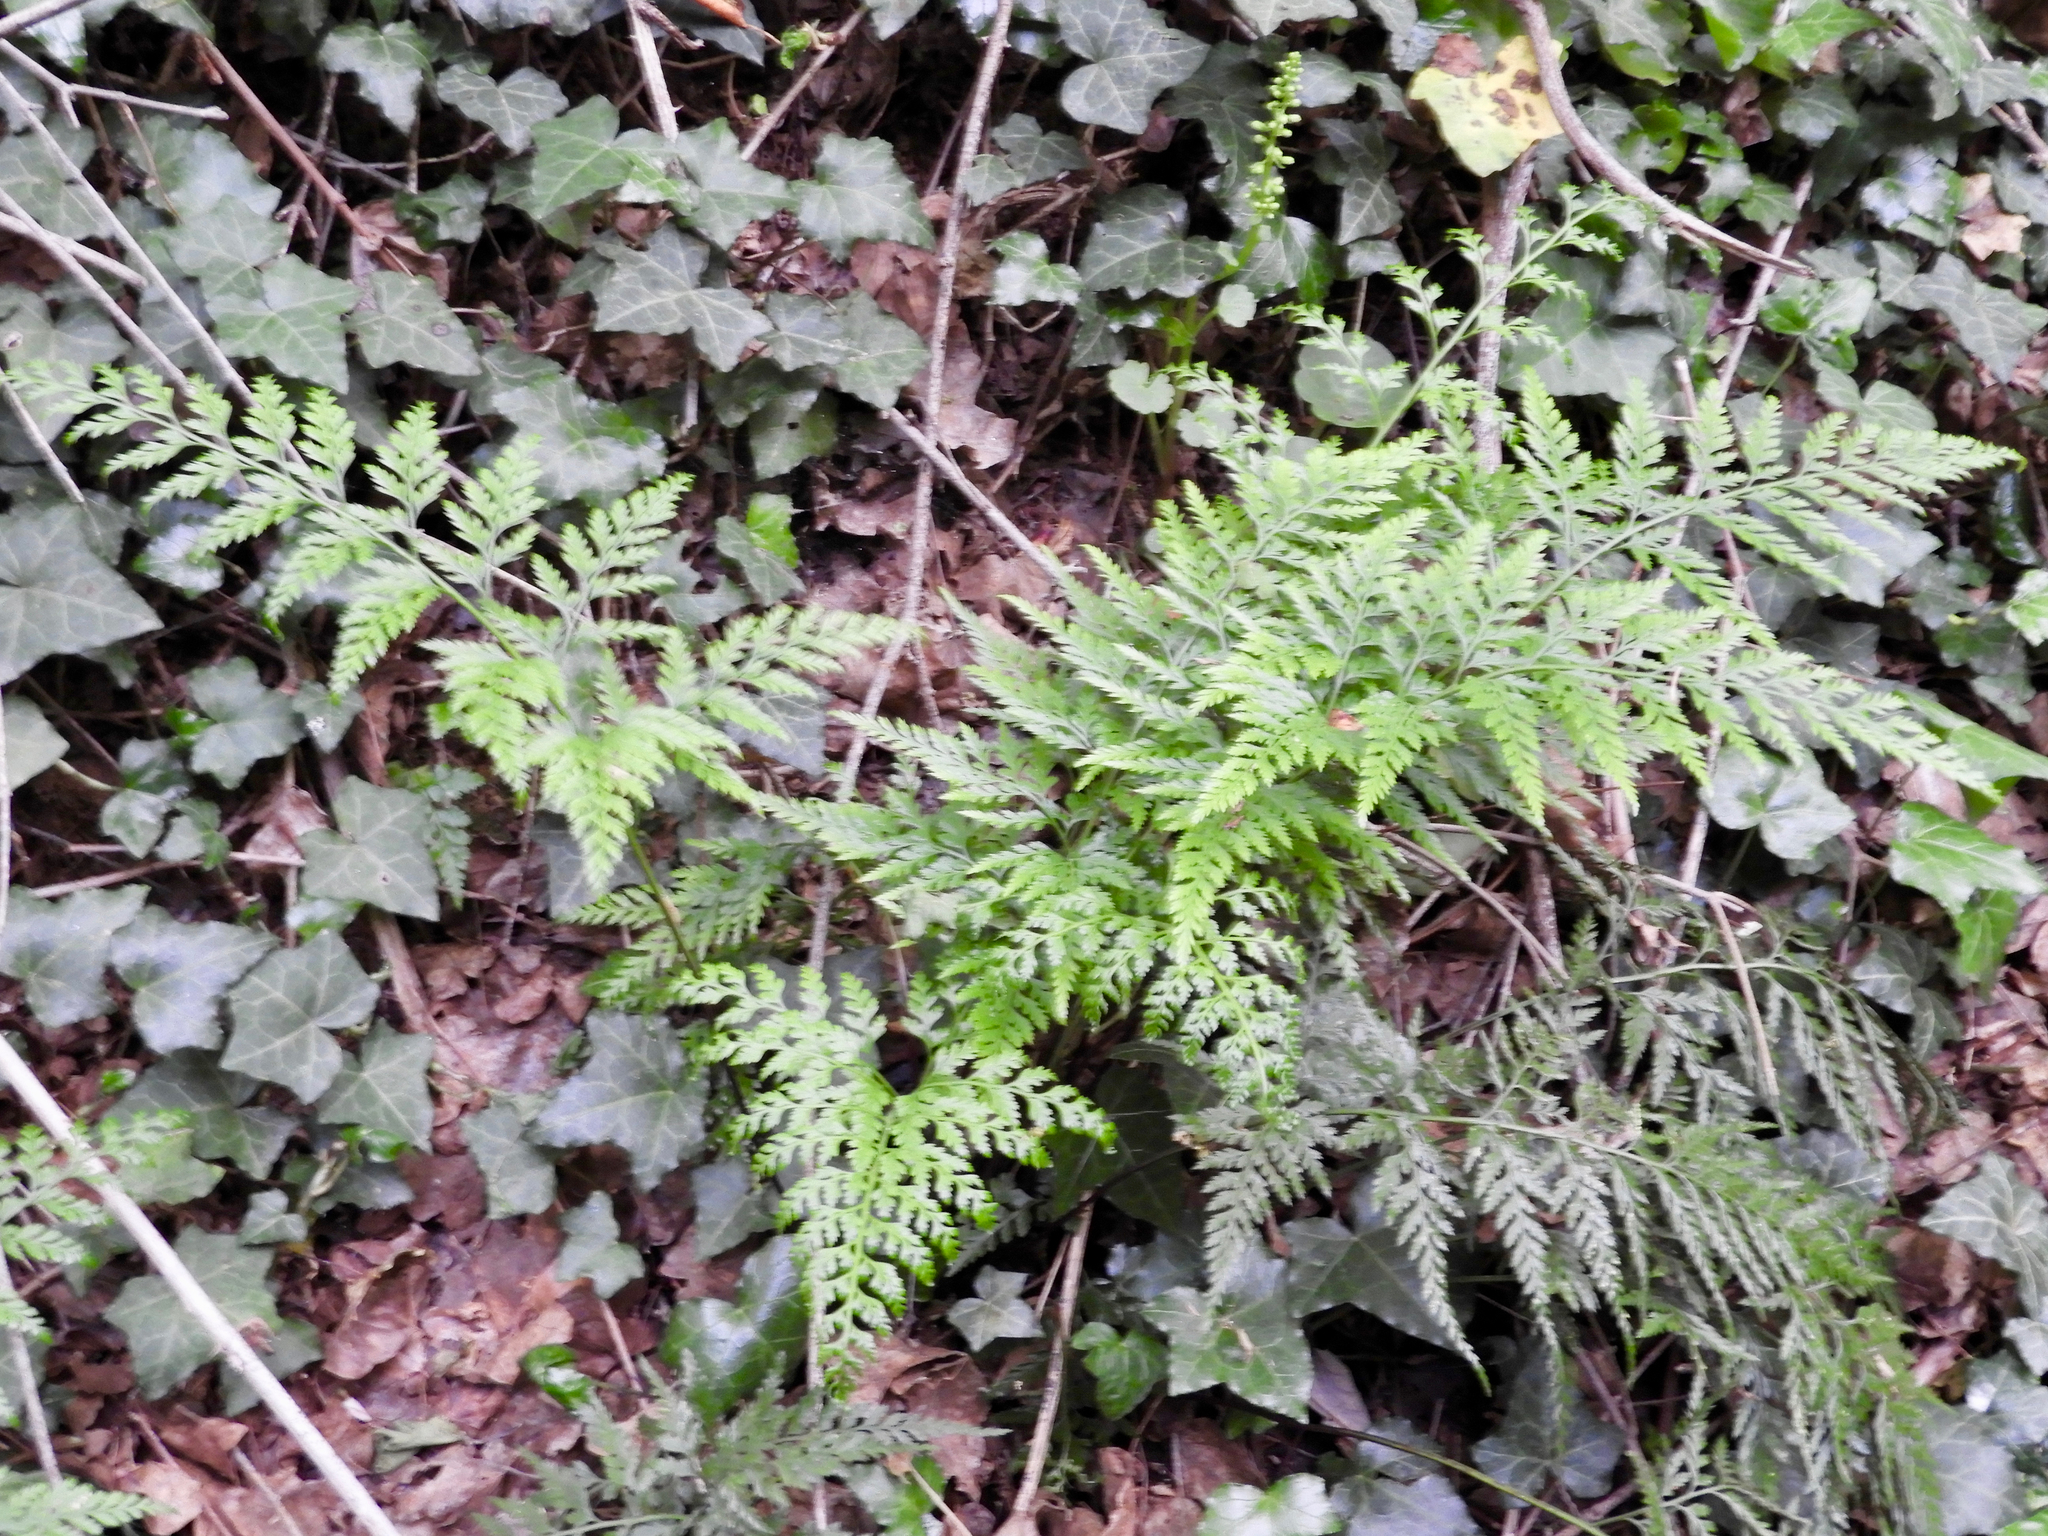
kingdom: Plantae
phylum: Tracheophyta
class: Polypodiopsida
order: Polypodiales
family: Aspleniaceae
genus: Asplenium
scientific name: Asplenium onopteris
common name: Irish spleenwort
